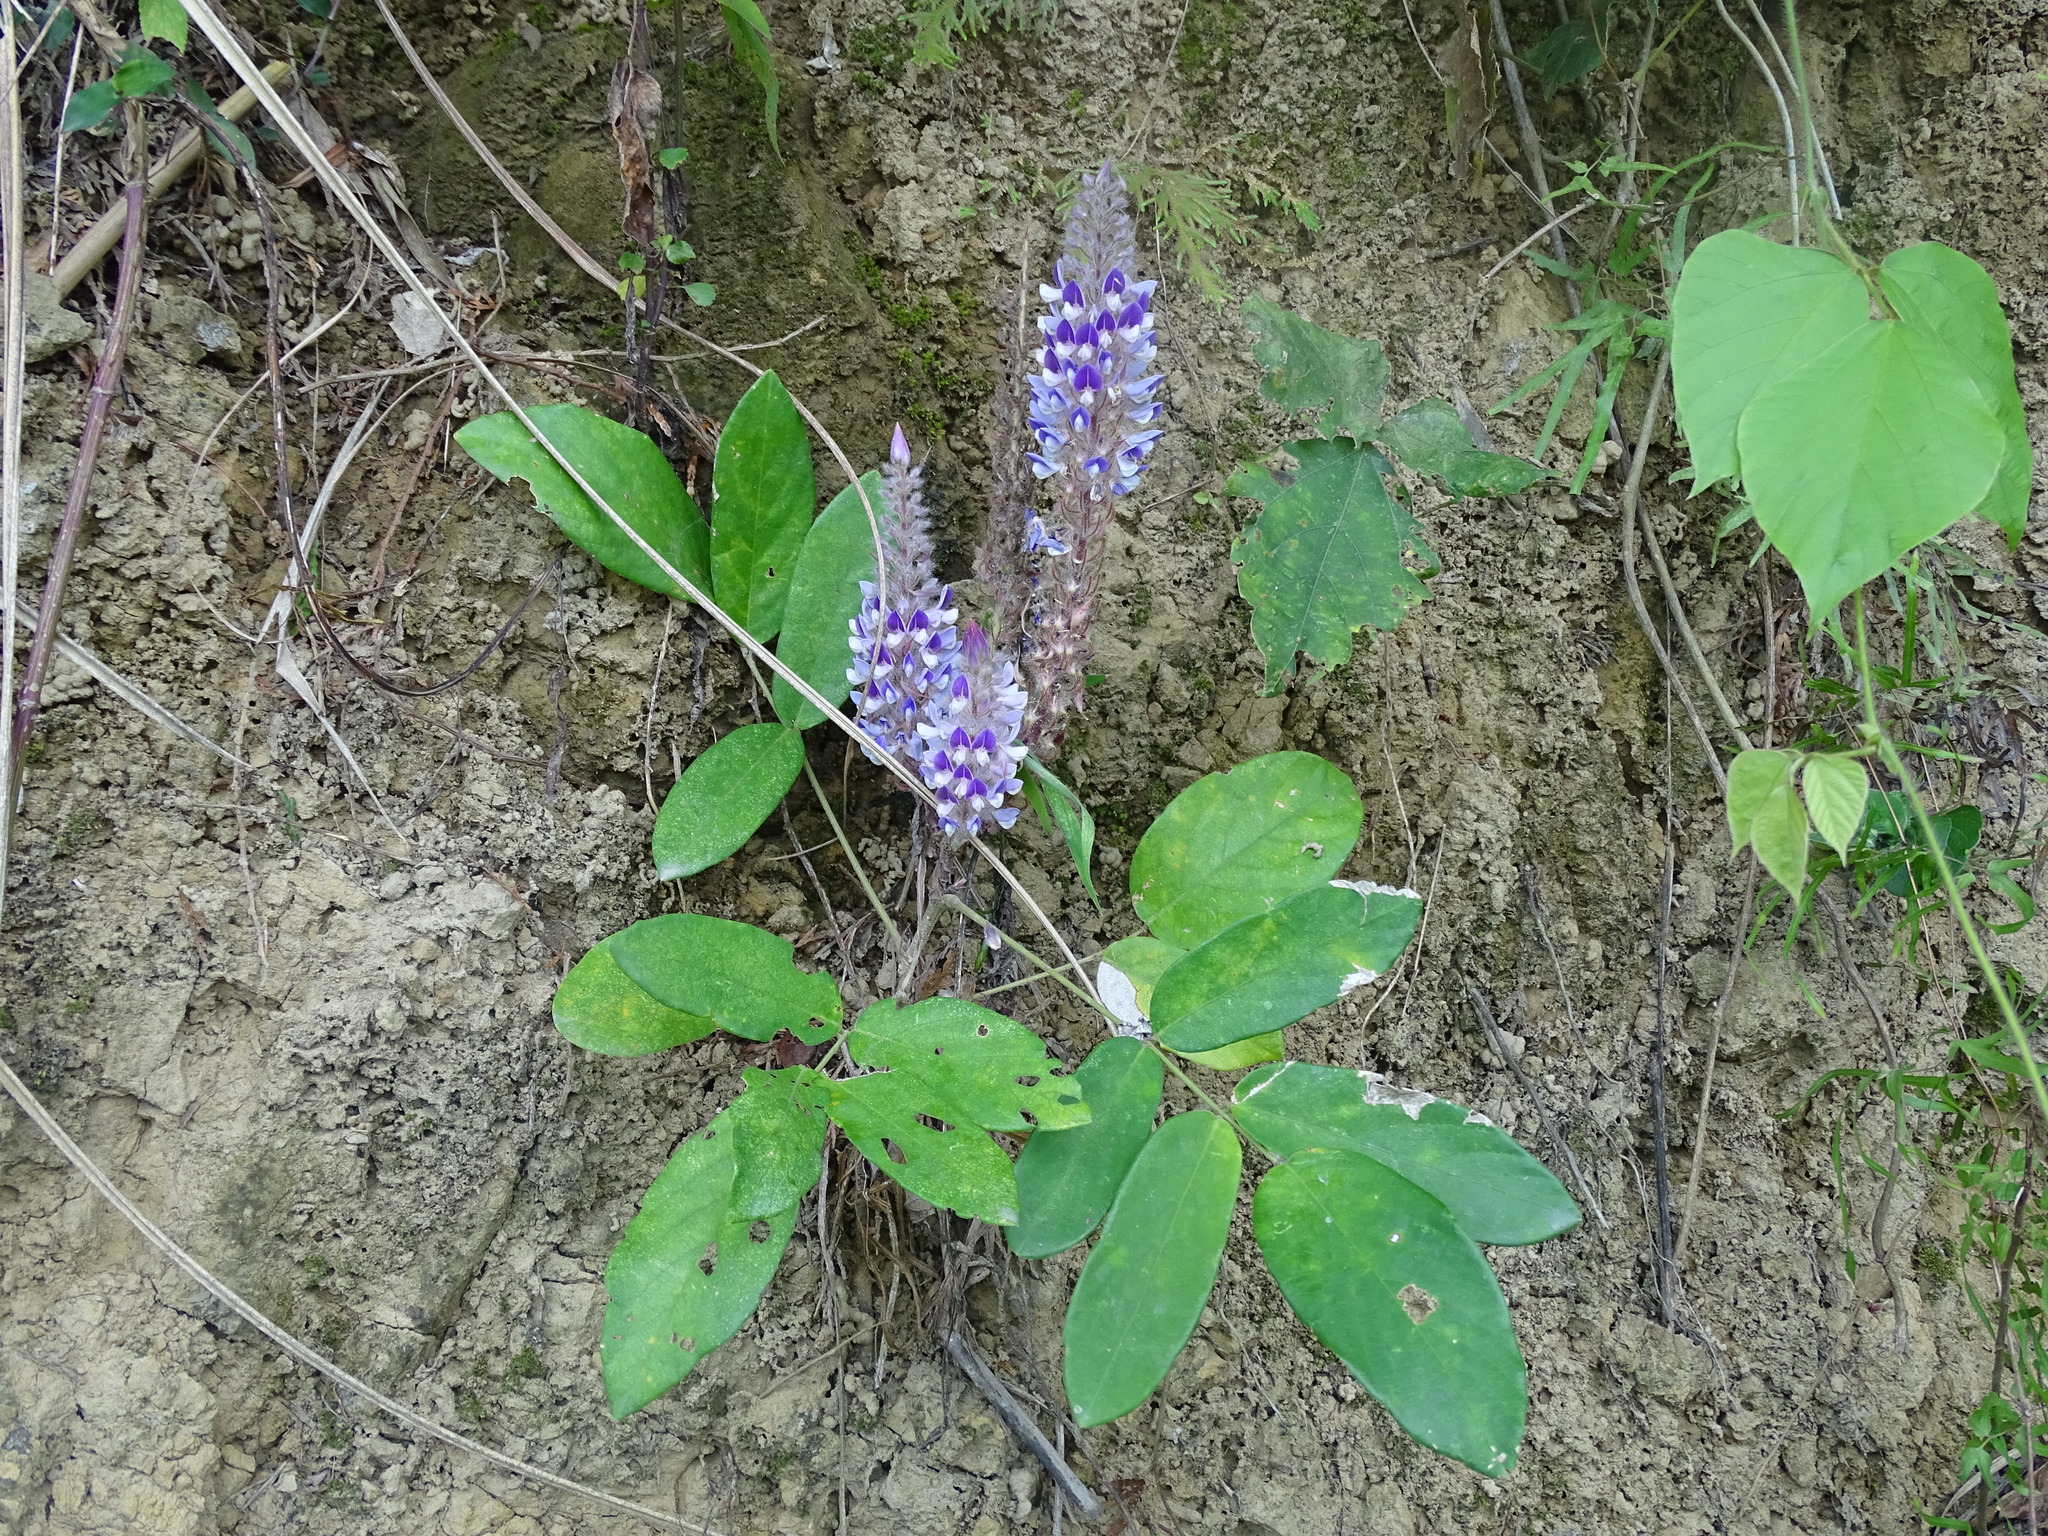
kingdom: Plantae
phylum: Tracheophyta
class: Magnoliopsida
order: Fabales
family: Fabaceae
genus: Uraria
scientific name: Uraria crinita
